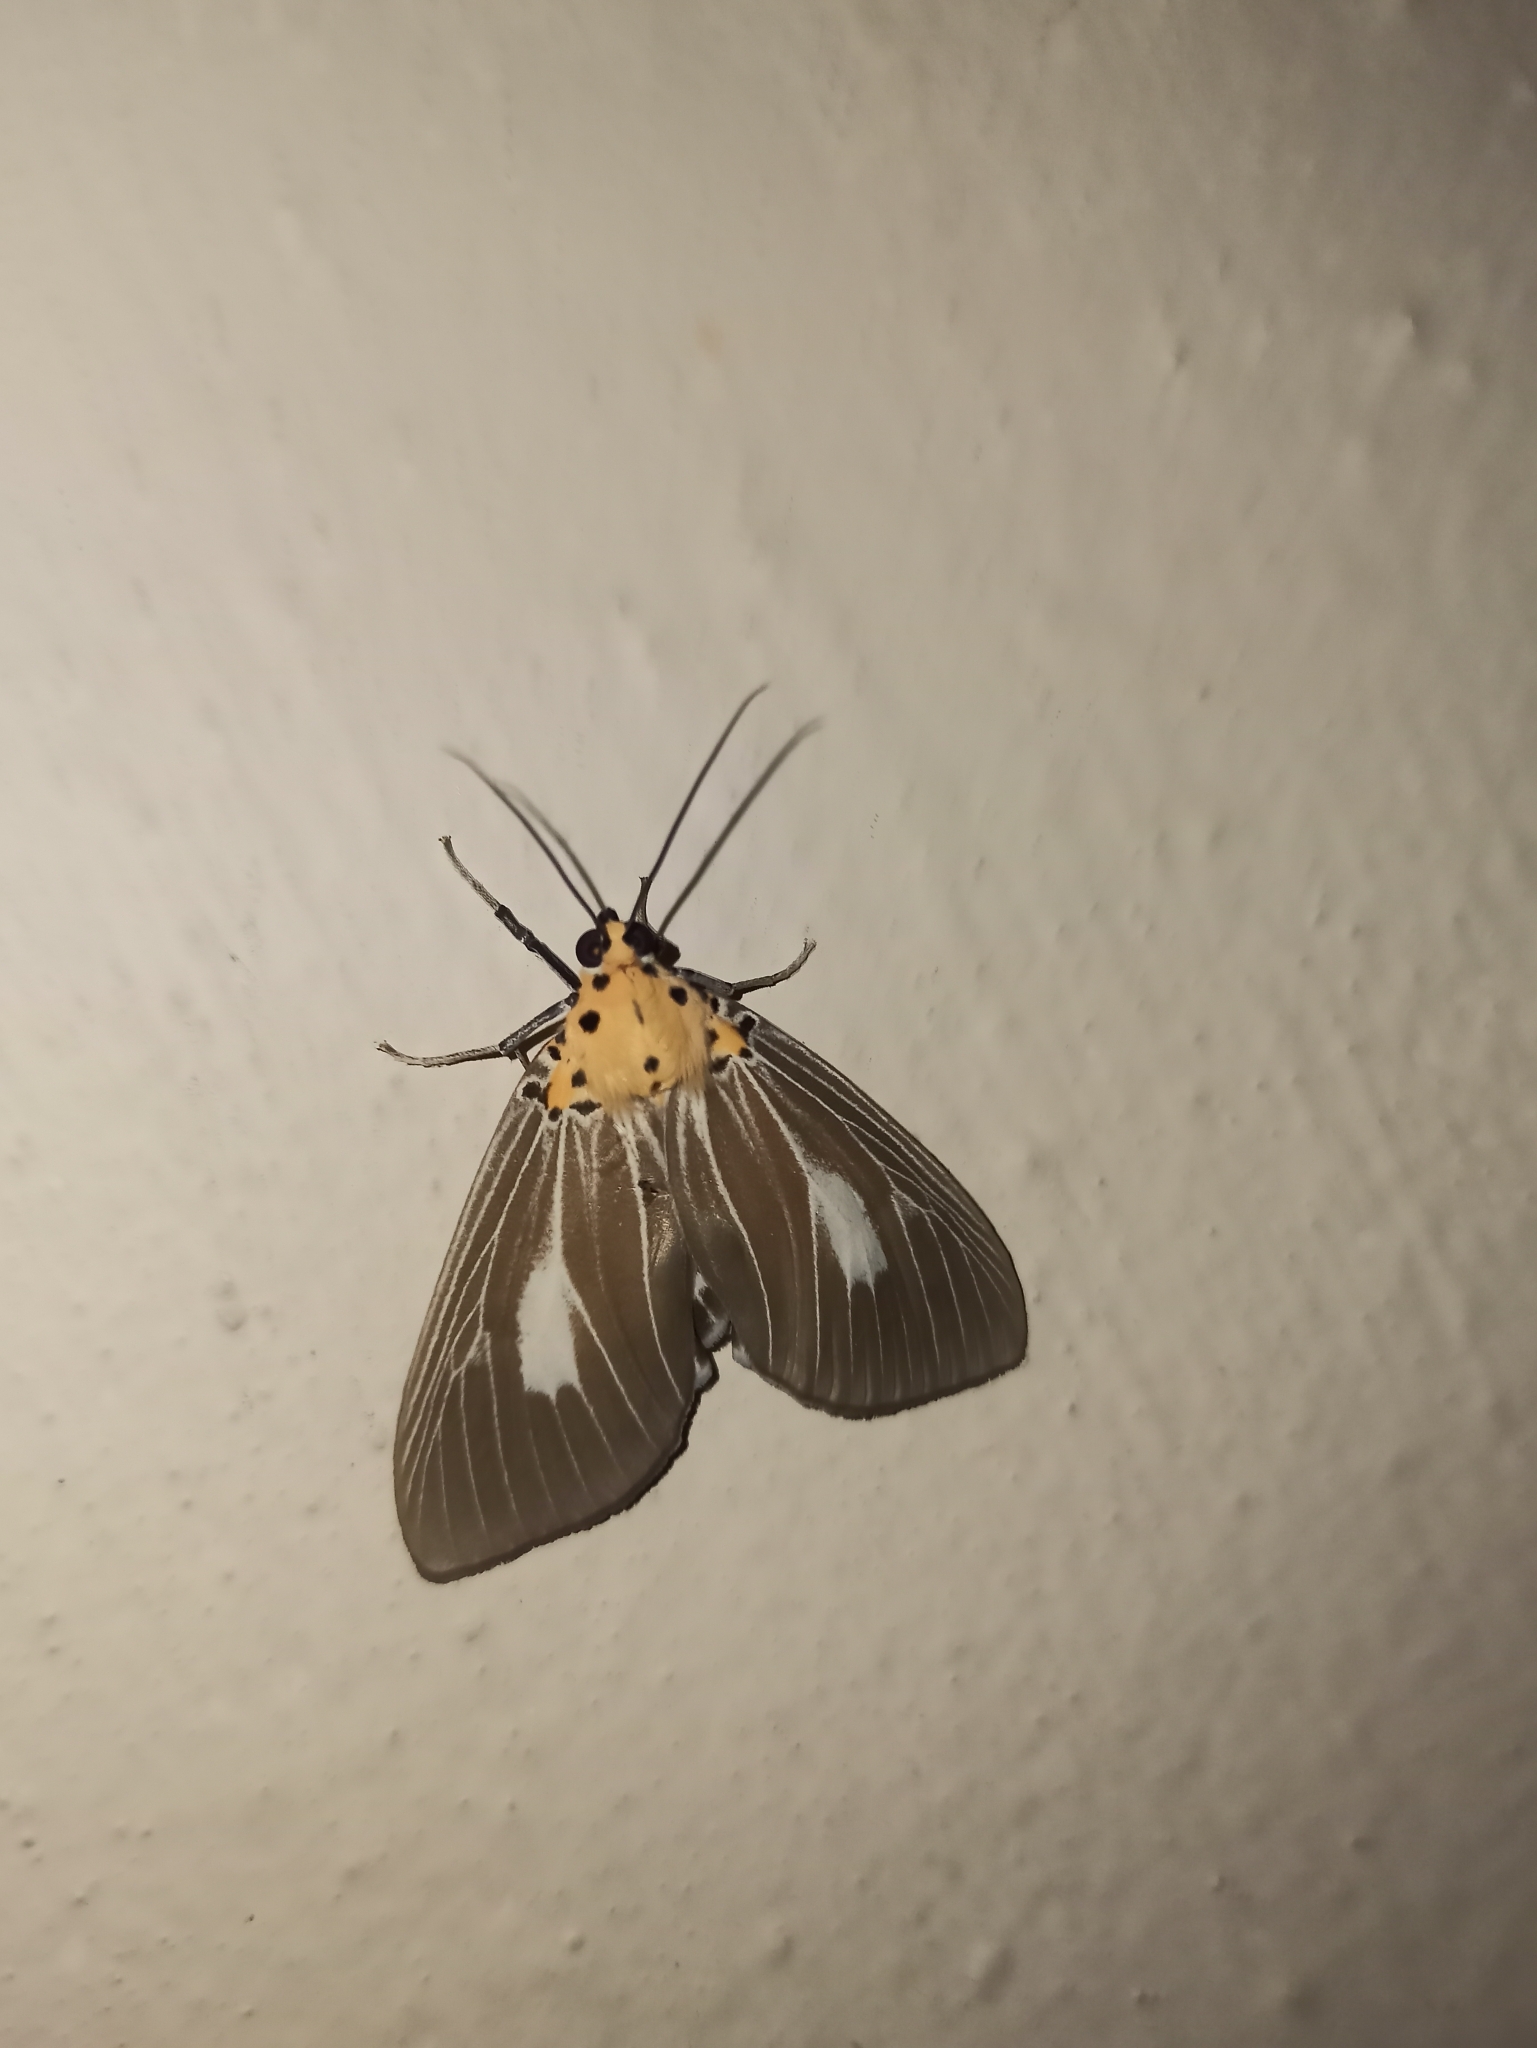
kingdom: Animalia
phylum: Arthropoda
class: Insecta
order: Lepidoptera
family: Erebidae
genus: Asota
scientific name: Asota canaraica
